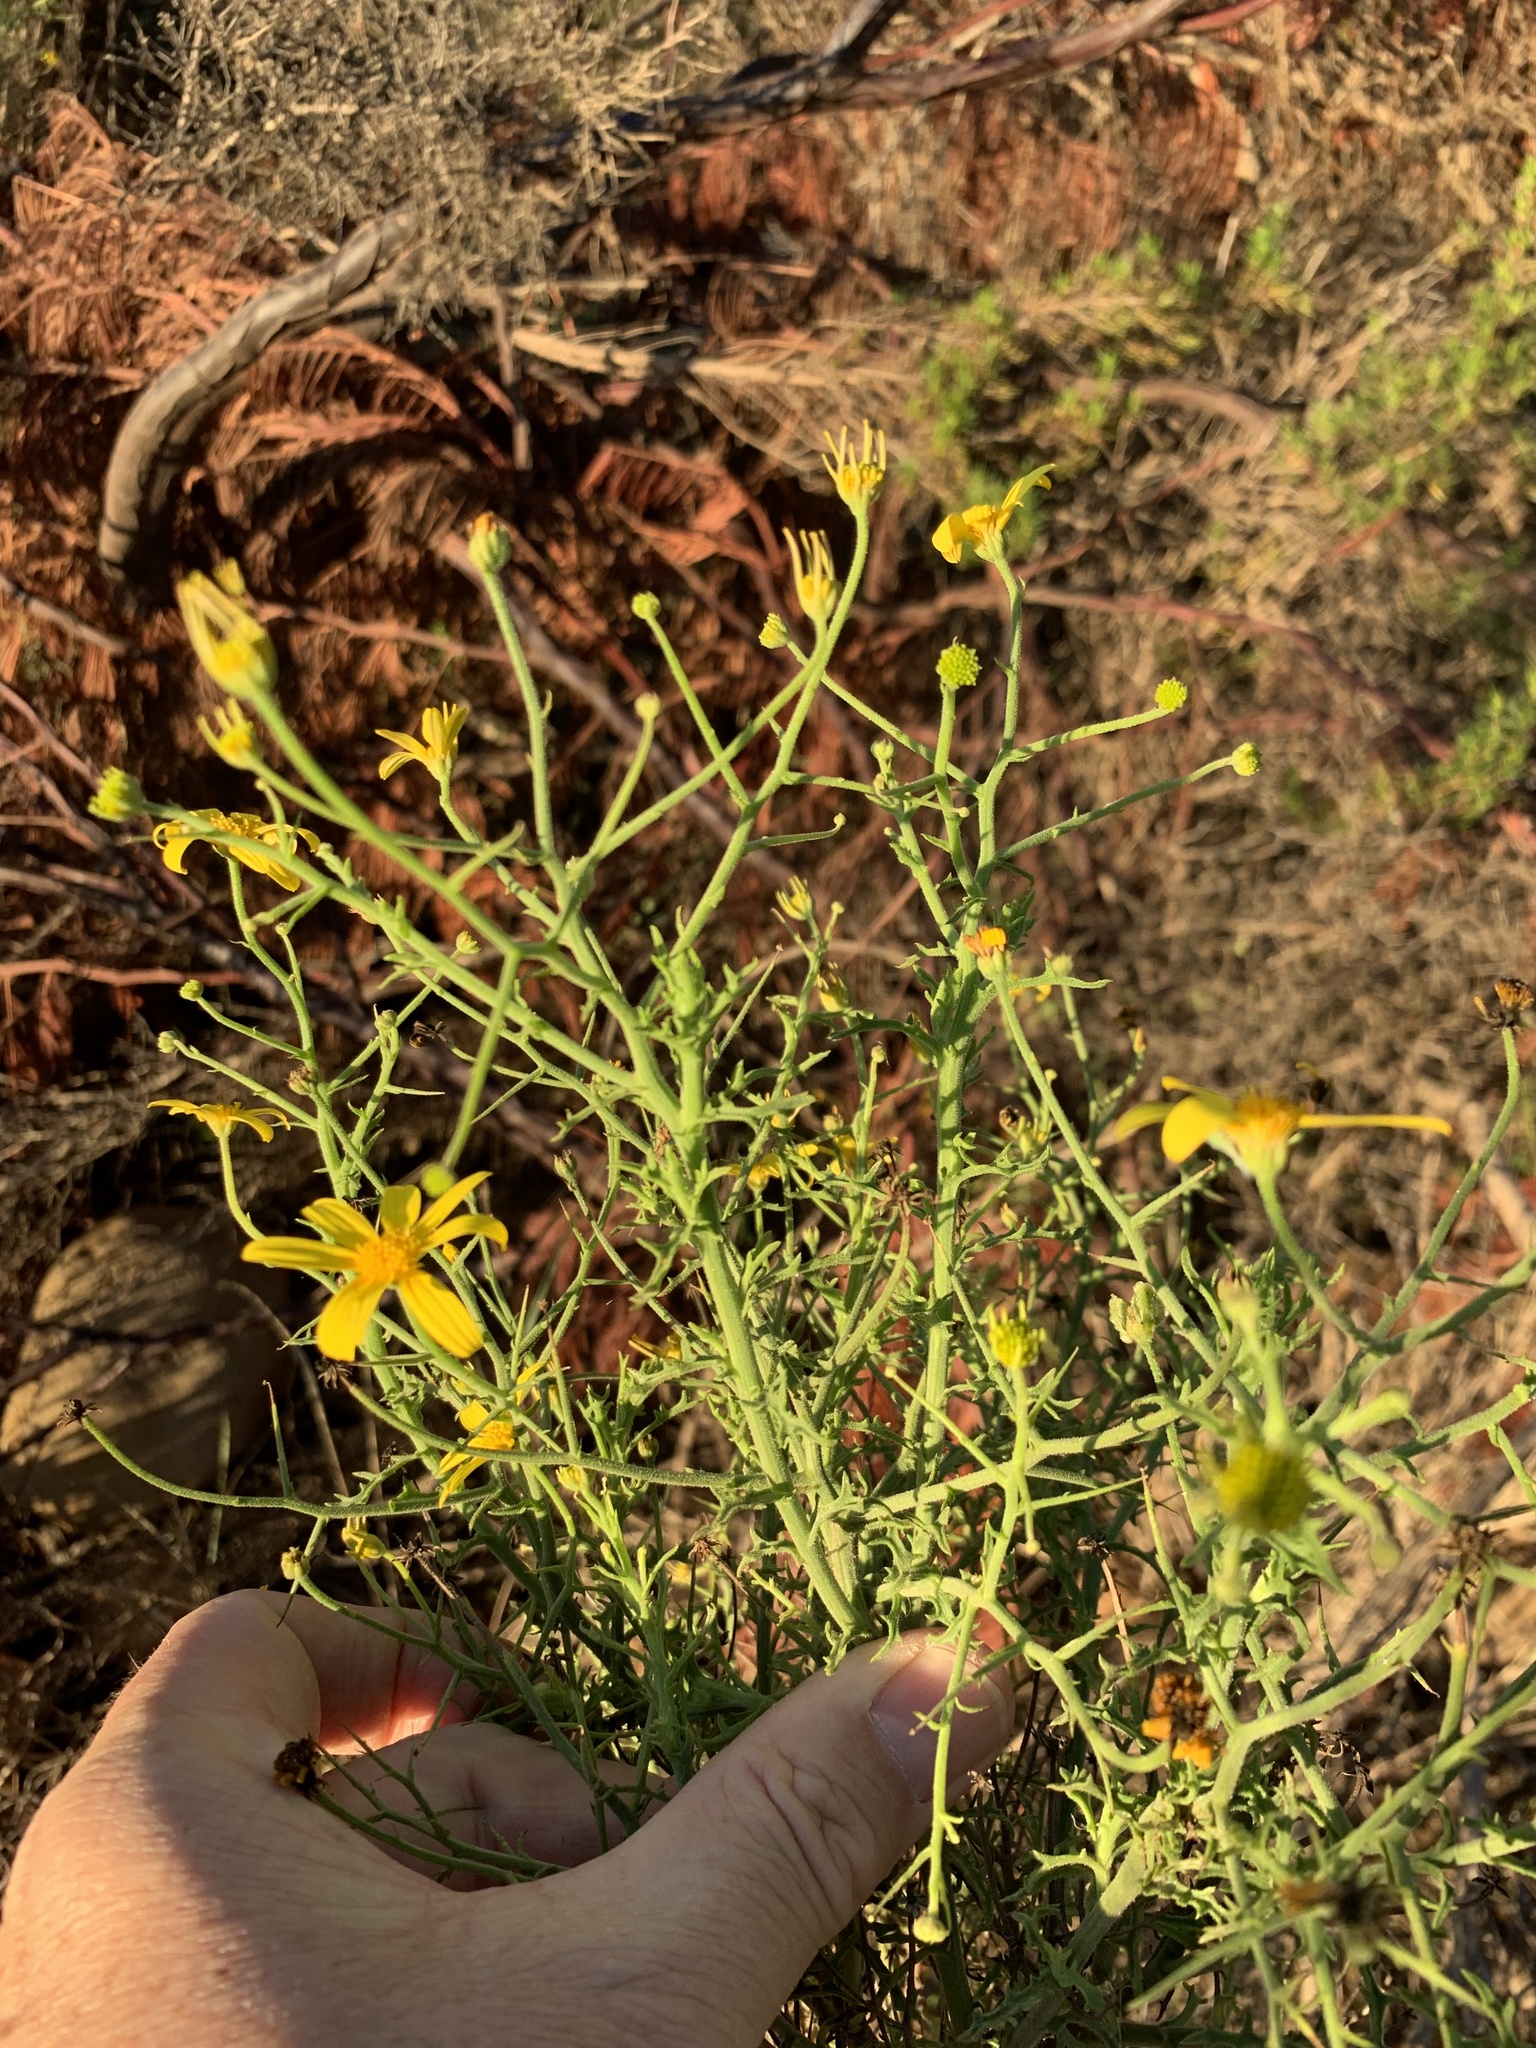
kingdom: Plantae
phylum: Tracheophyta
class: Magnoliopsida
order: Asterales
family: Asteraceae
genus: Osteospermum
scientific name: Osteospermum spinosum
